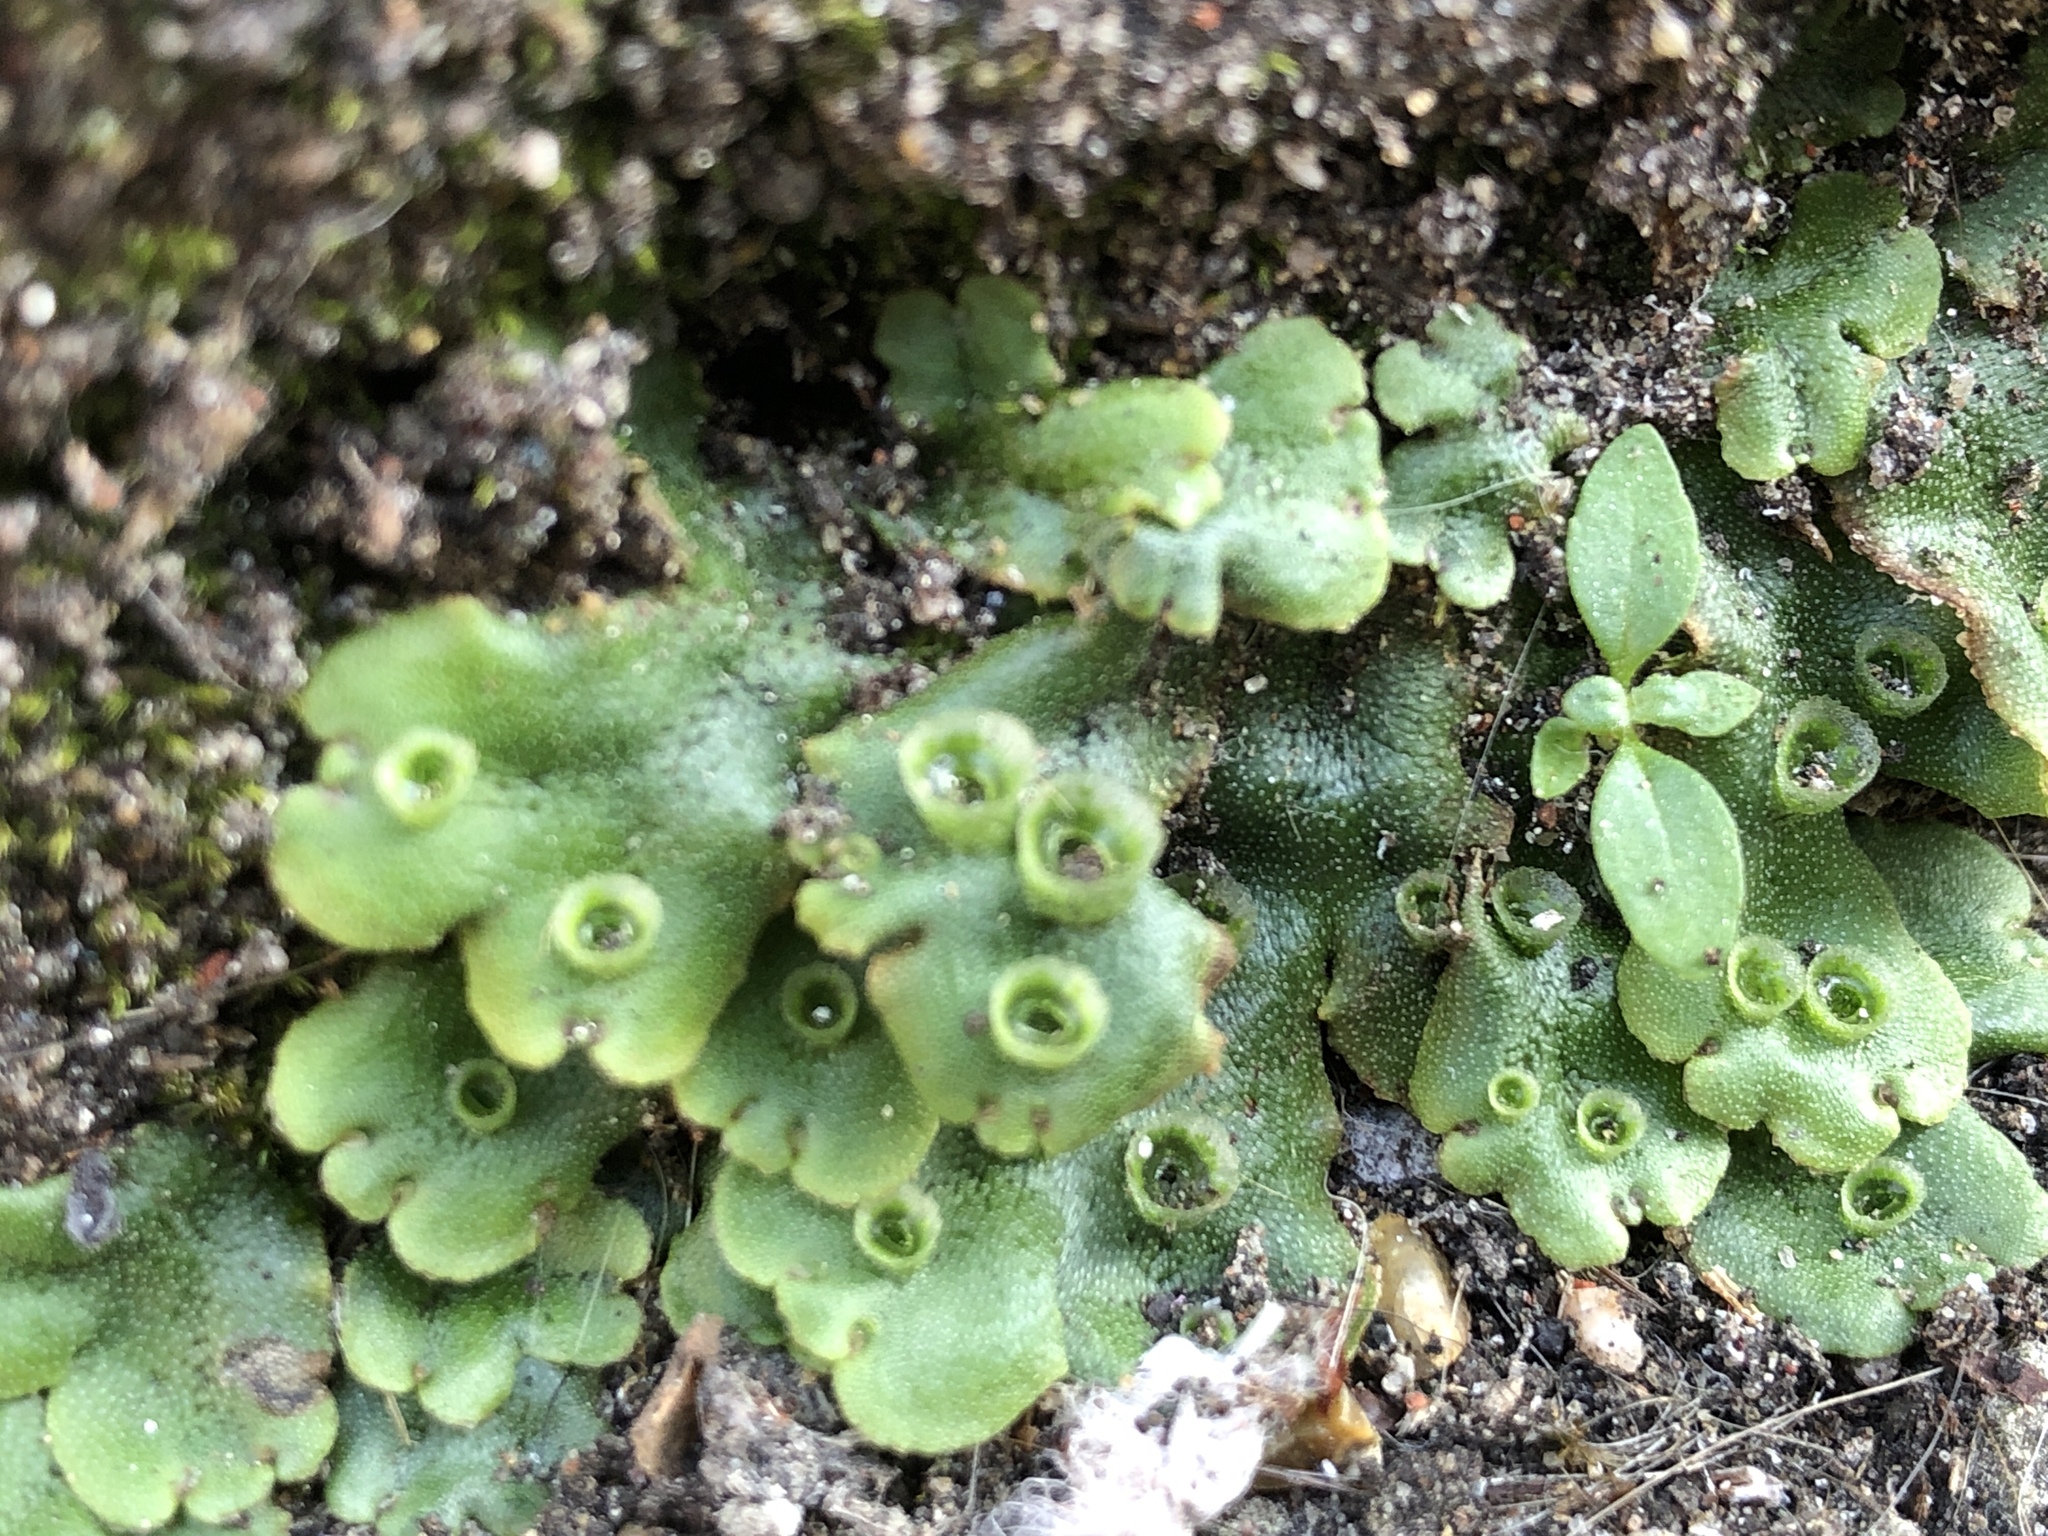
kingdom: Plantae
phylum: Marchantiophyta
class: Marchantiopsida
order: Marchantiales
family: Marchantiaceae
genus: Marchantia
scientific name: Marchantia polymorpha
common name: Common liverwort
